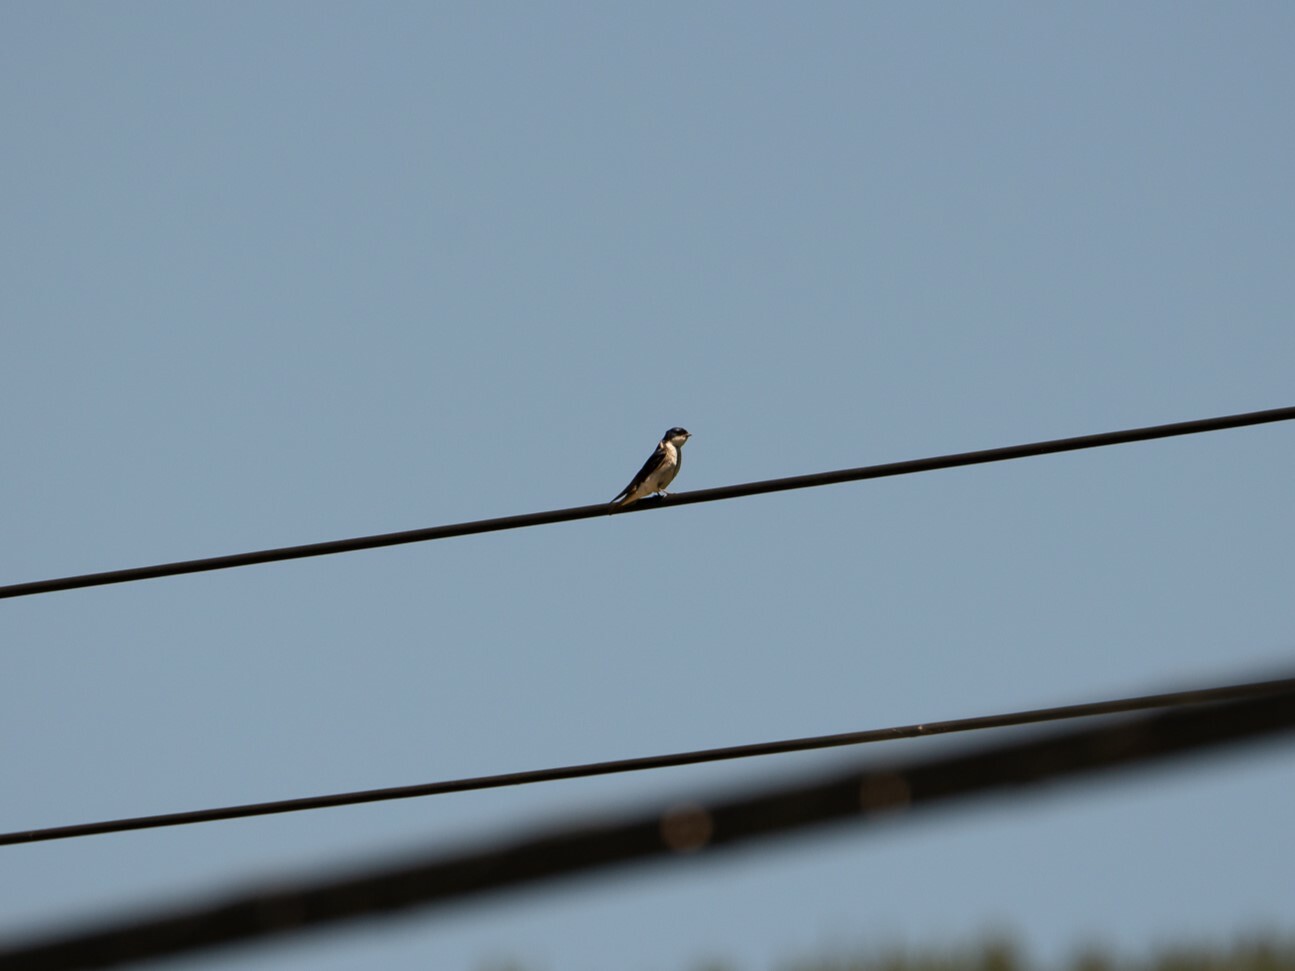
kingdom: Animalia
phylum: Chordata
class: Aves
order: Passeriformes
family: Hirundinidae
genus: Tachycineta
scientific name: Tachycineta leucopyga
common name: Chilean swallow
